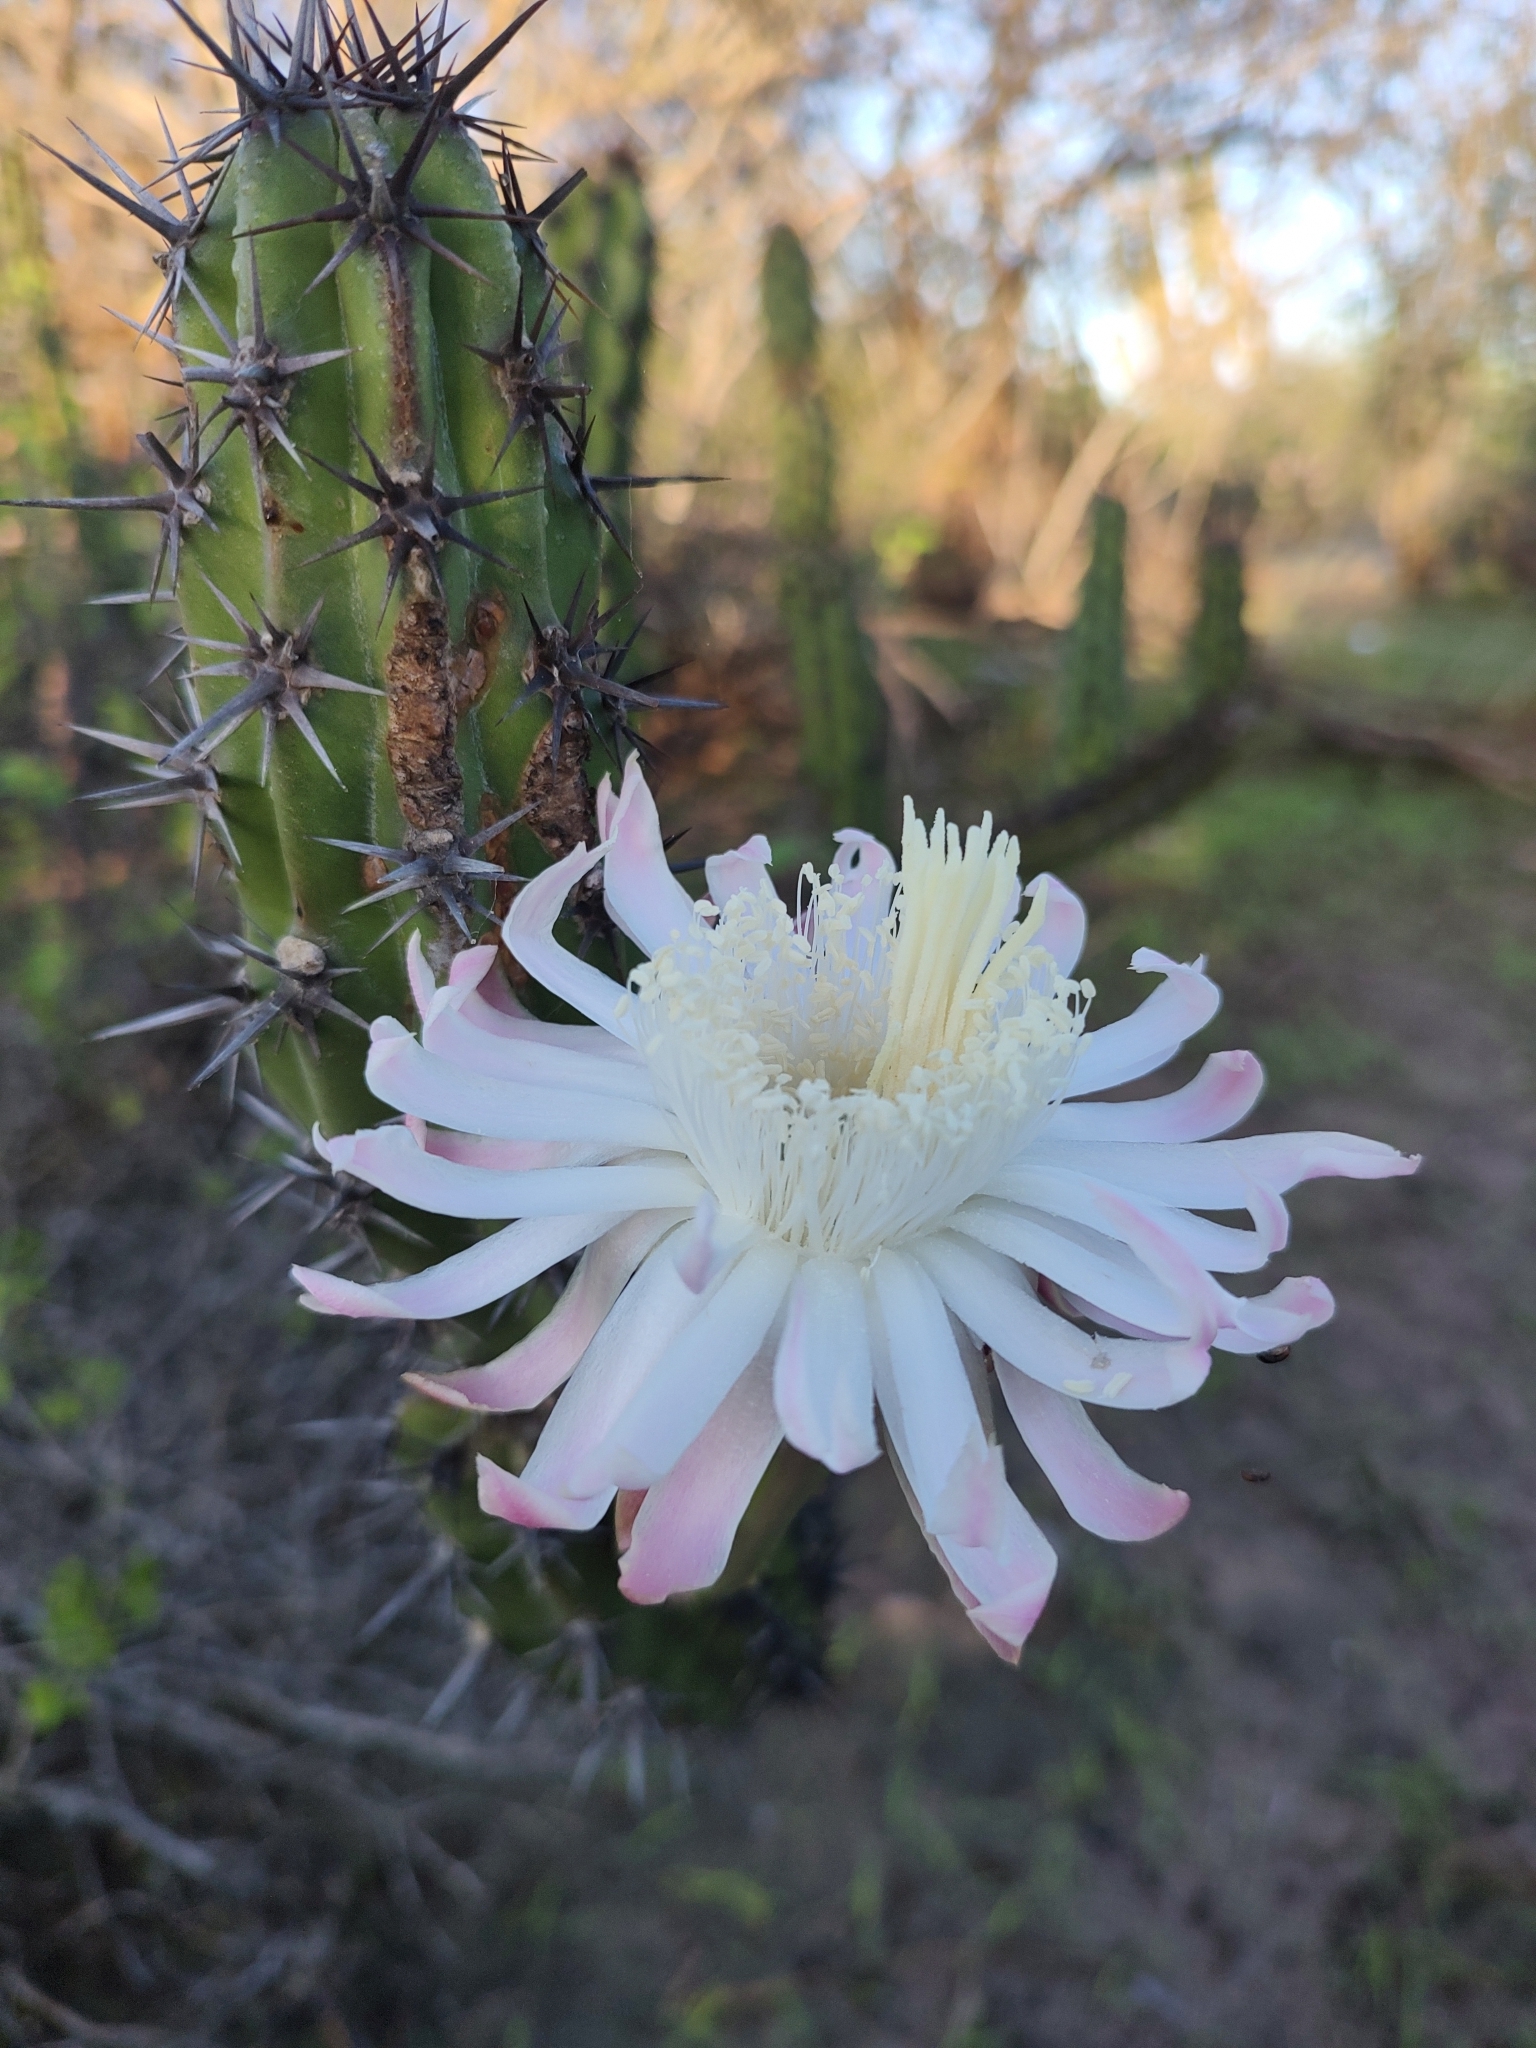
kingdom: Plantae
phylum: Tracheophyta
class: Magnoliopsida
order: Caryophyllales
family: Cactaceae
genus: Stenocereus
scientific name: Stenocereus gummosus
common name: Dagger cactus
